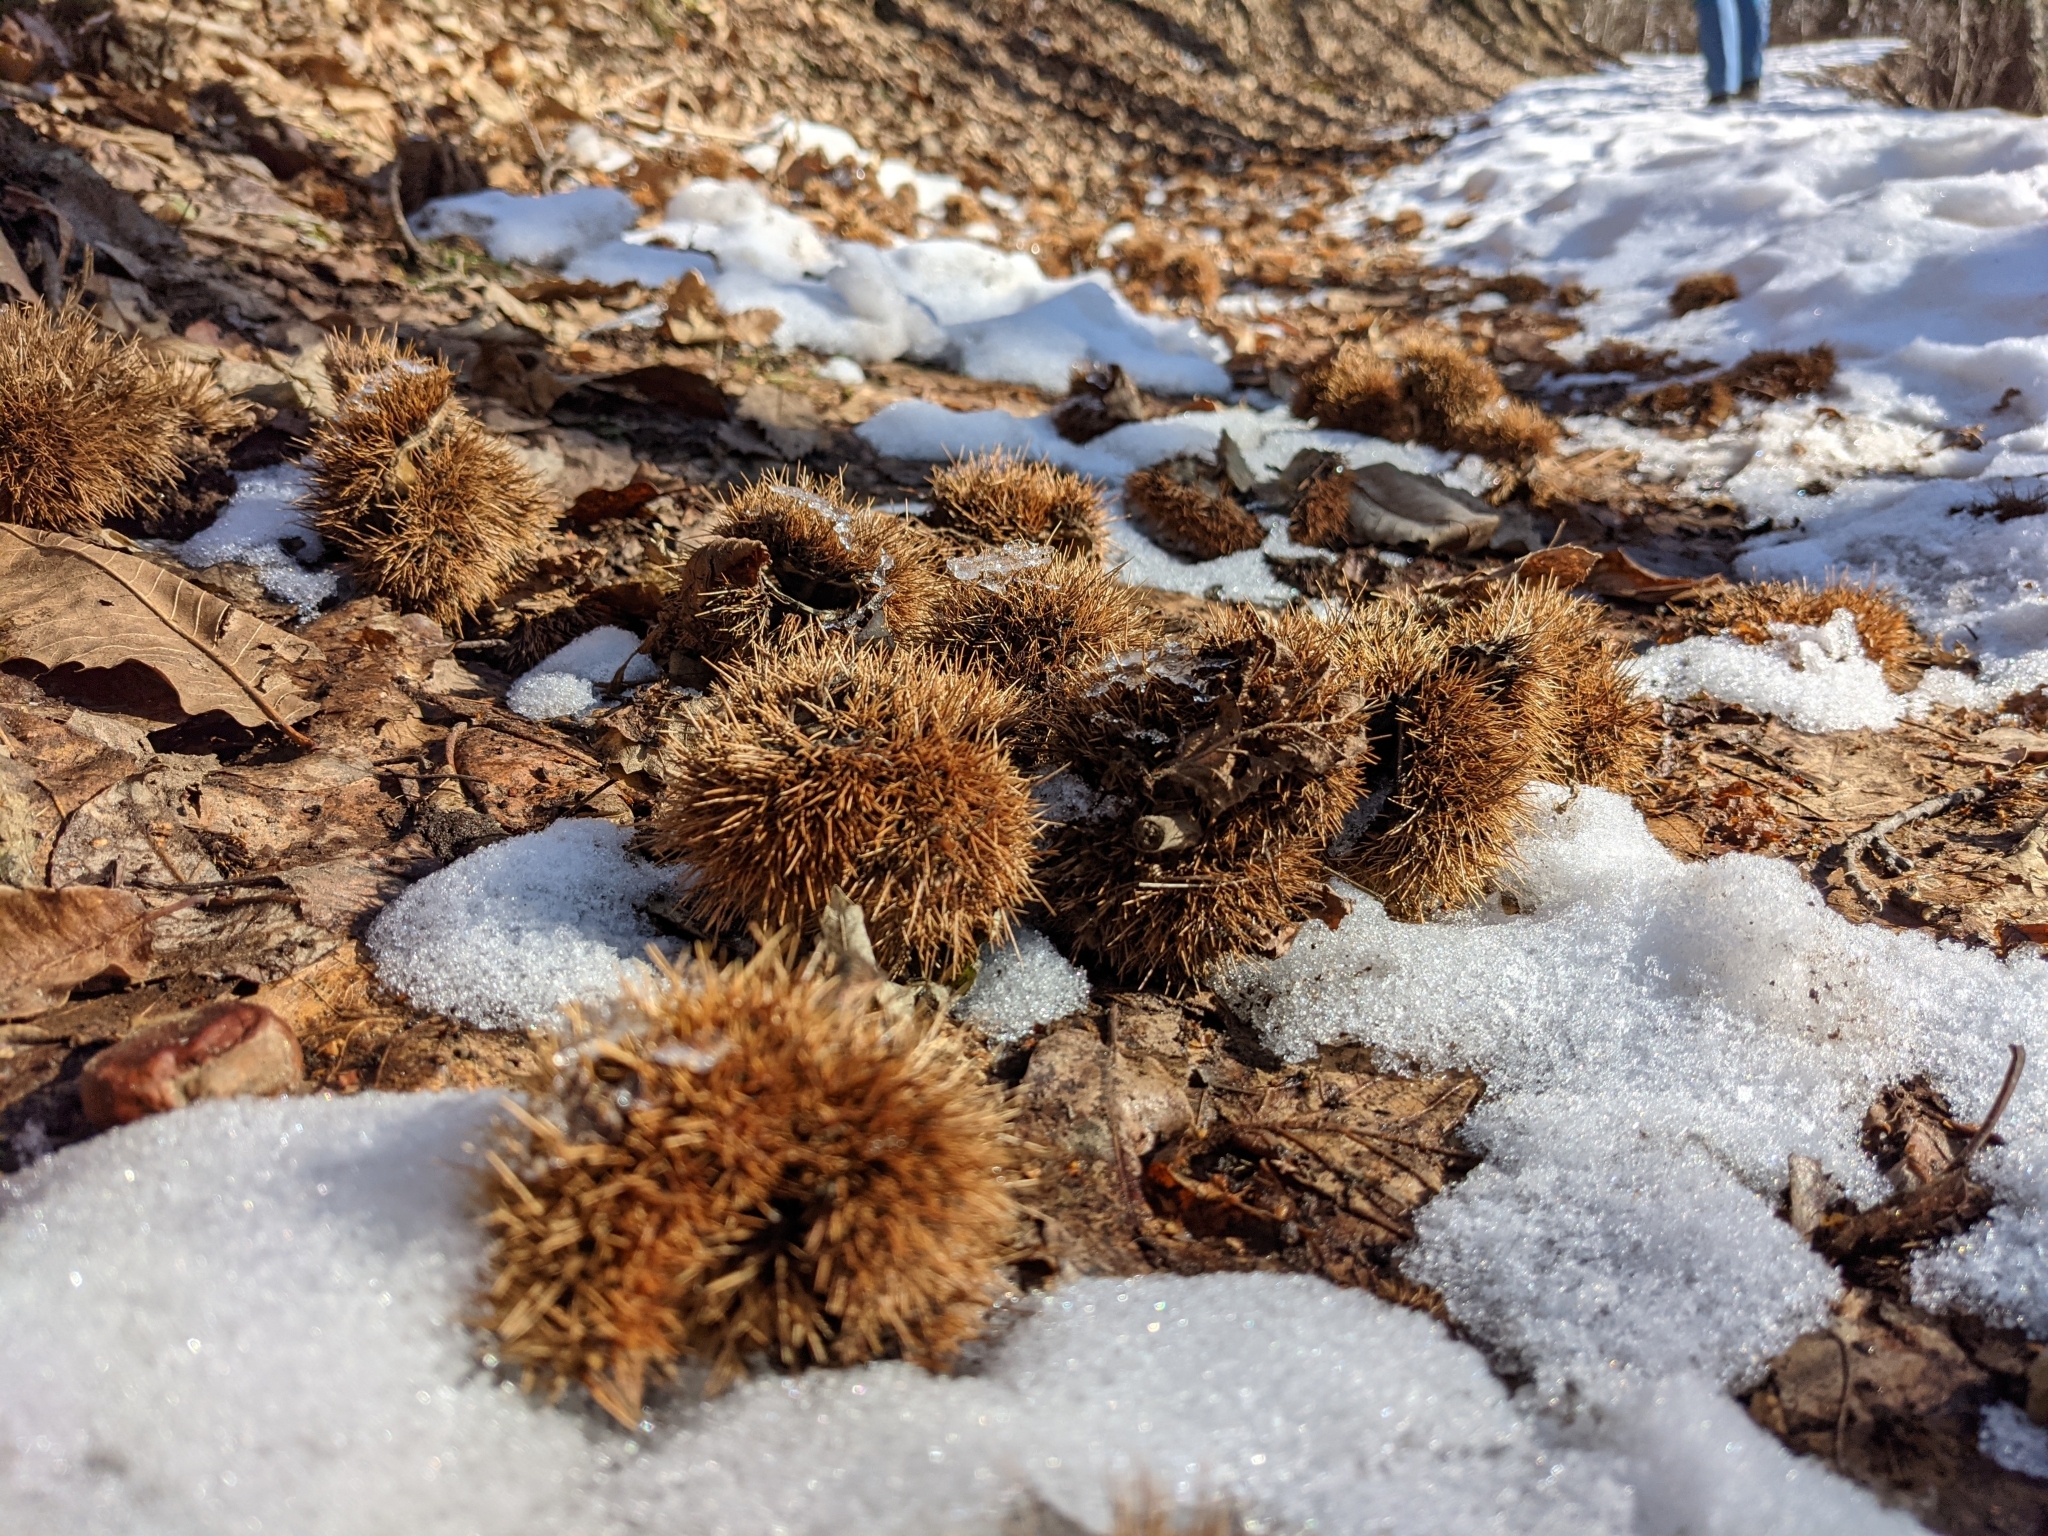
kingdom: Plantae
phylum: Tracheophyta
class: Magnoliopsida
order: Fagales
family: Fagaceae
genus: Castanea
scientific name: Castanea sativa
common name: Sweet chestnut
